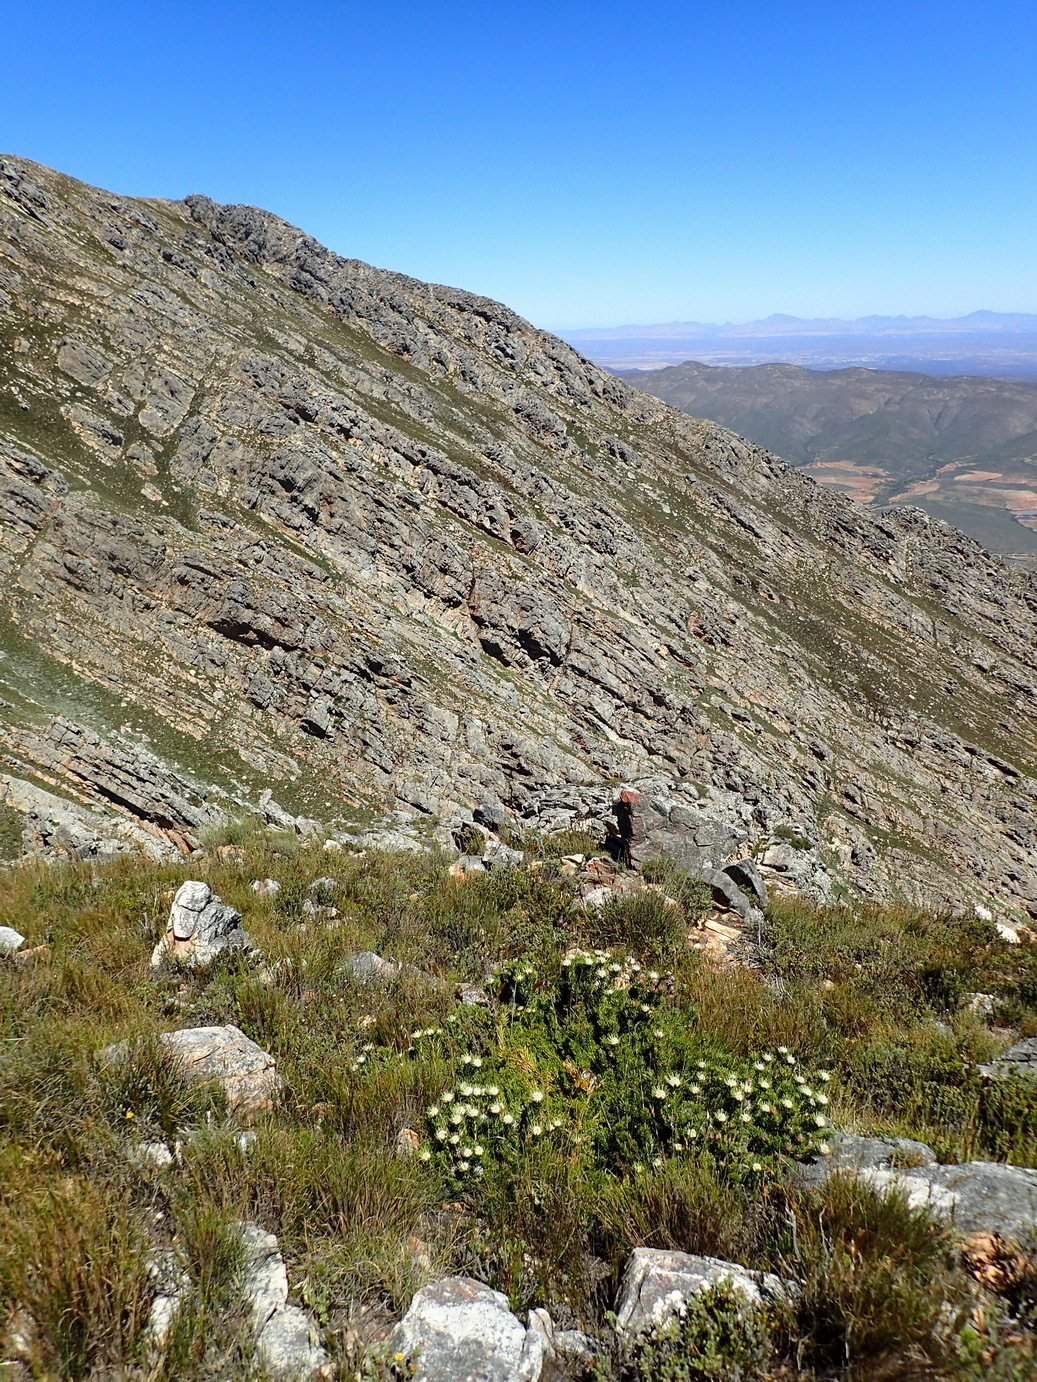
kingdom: Plantae
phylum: Tracheophyta
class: Magnoliopsida
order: Proteales
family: Proteaceae
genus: Leucadendron
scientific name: Leucadendron dregei
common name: Summit conebush
